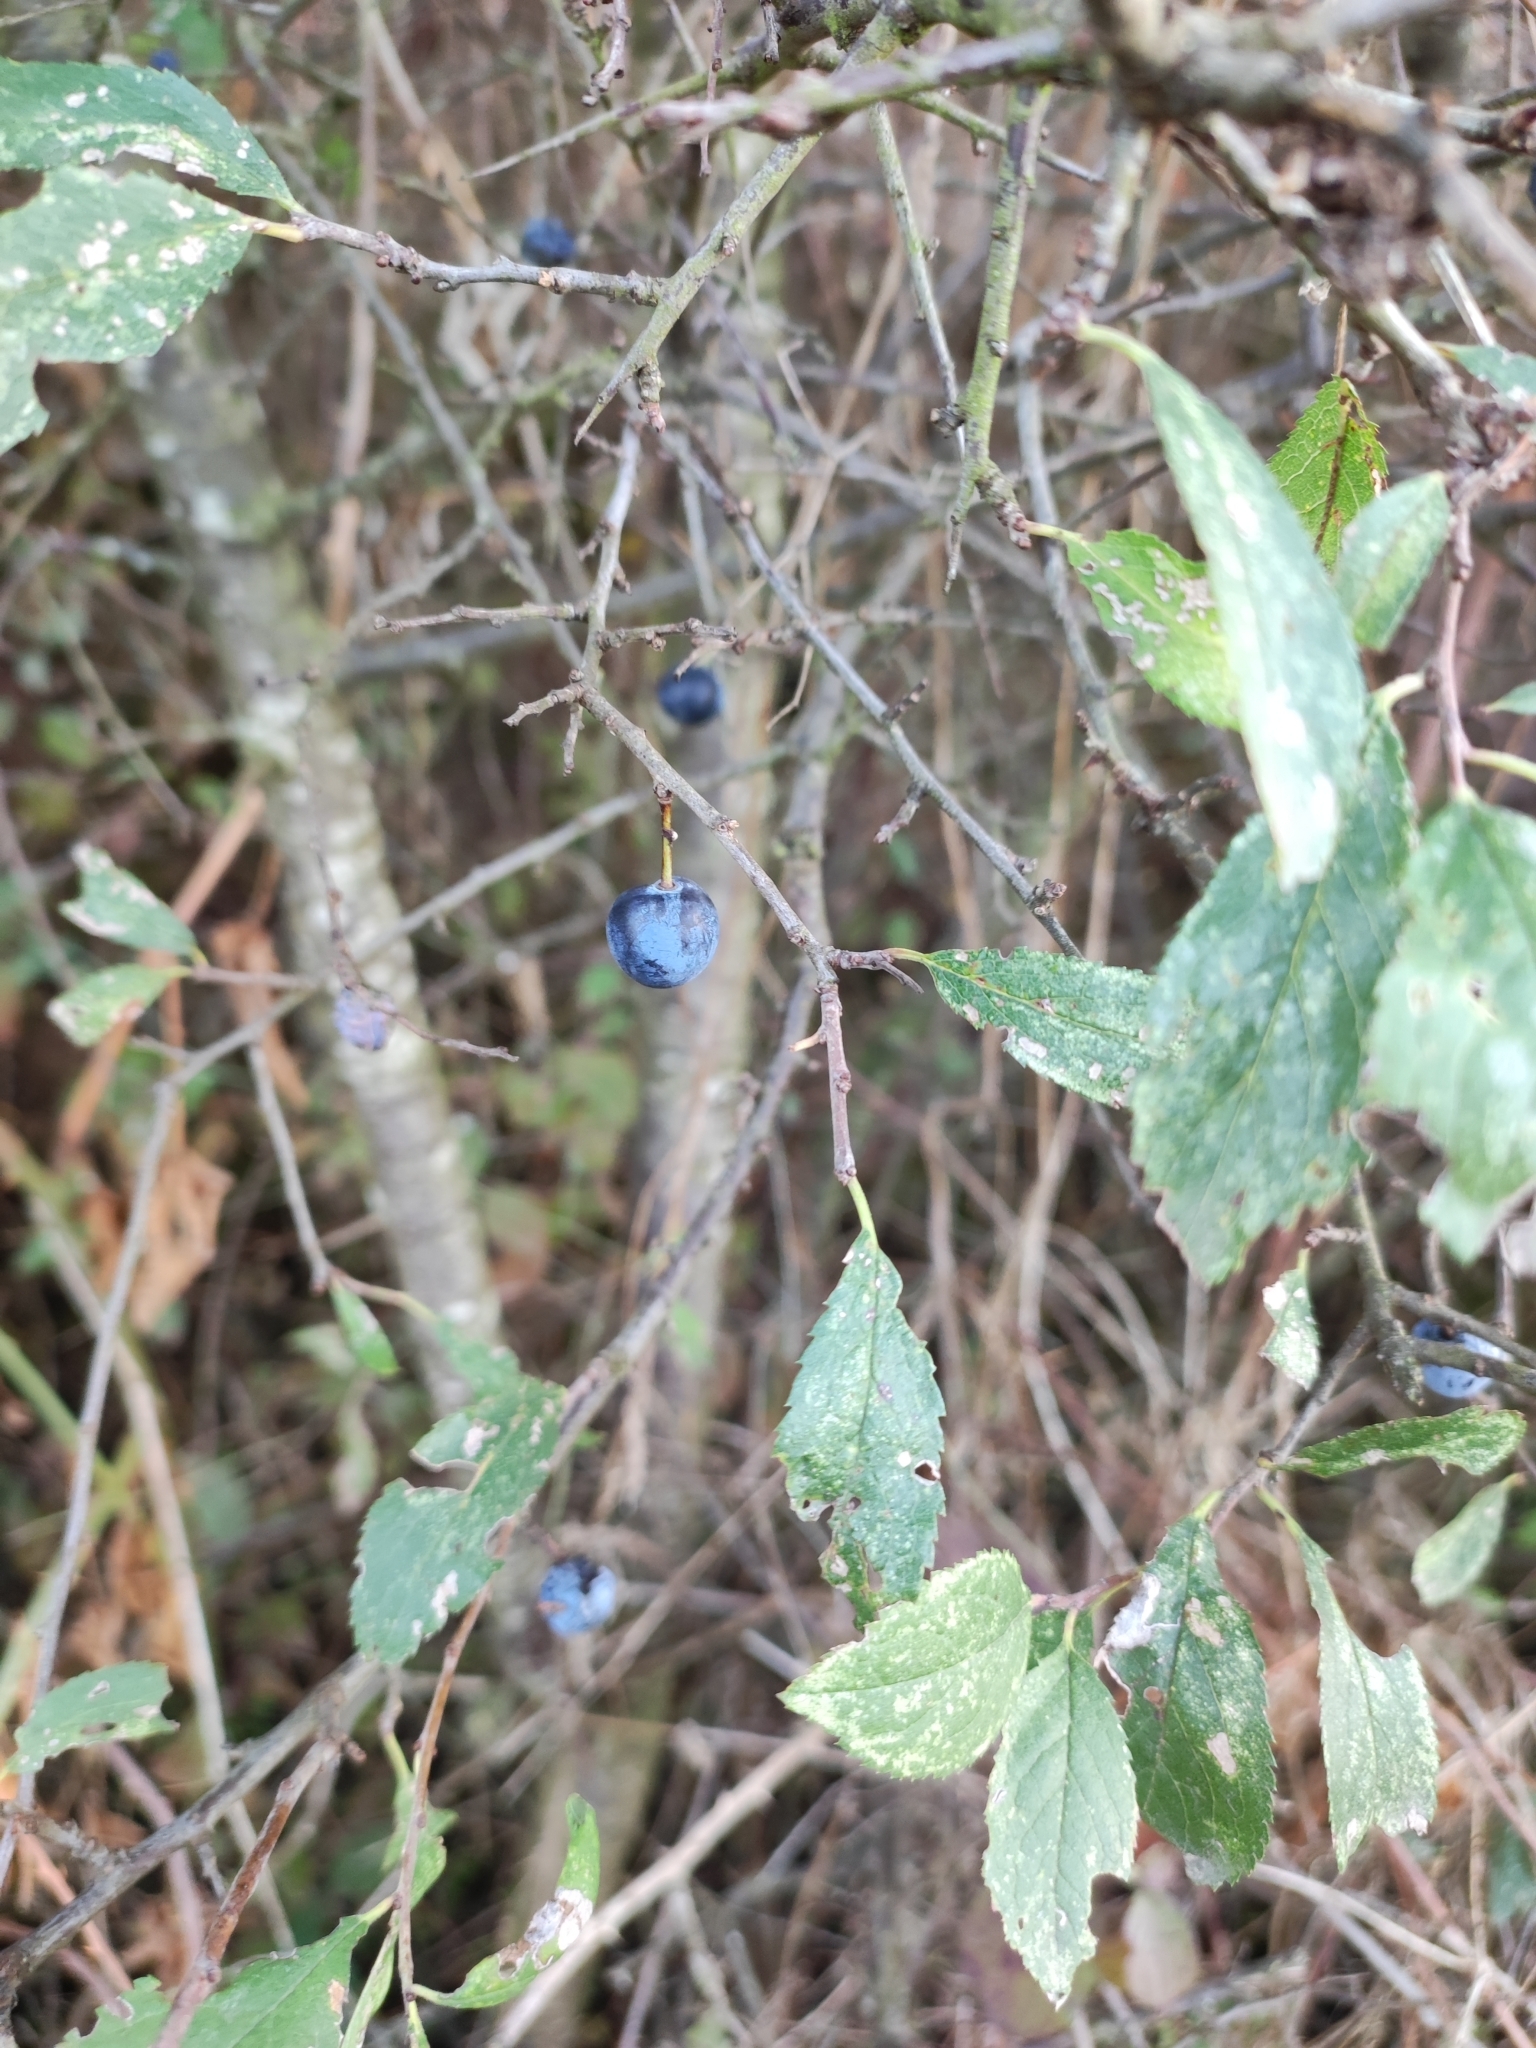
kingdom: Plantae
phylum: Tracheophyta
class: Magnoliopsida
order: Rosales
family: Rosaceae
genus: Prunus
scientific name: Prunus spinosa
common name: Blackthorn
